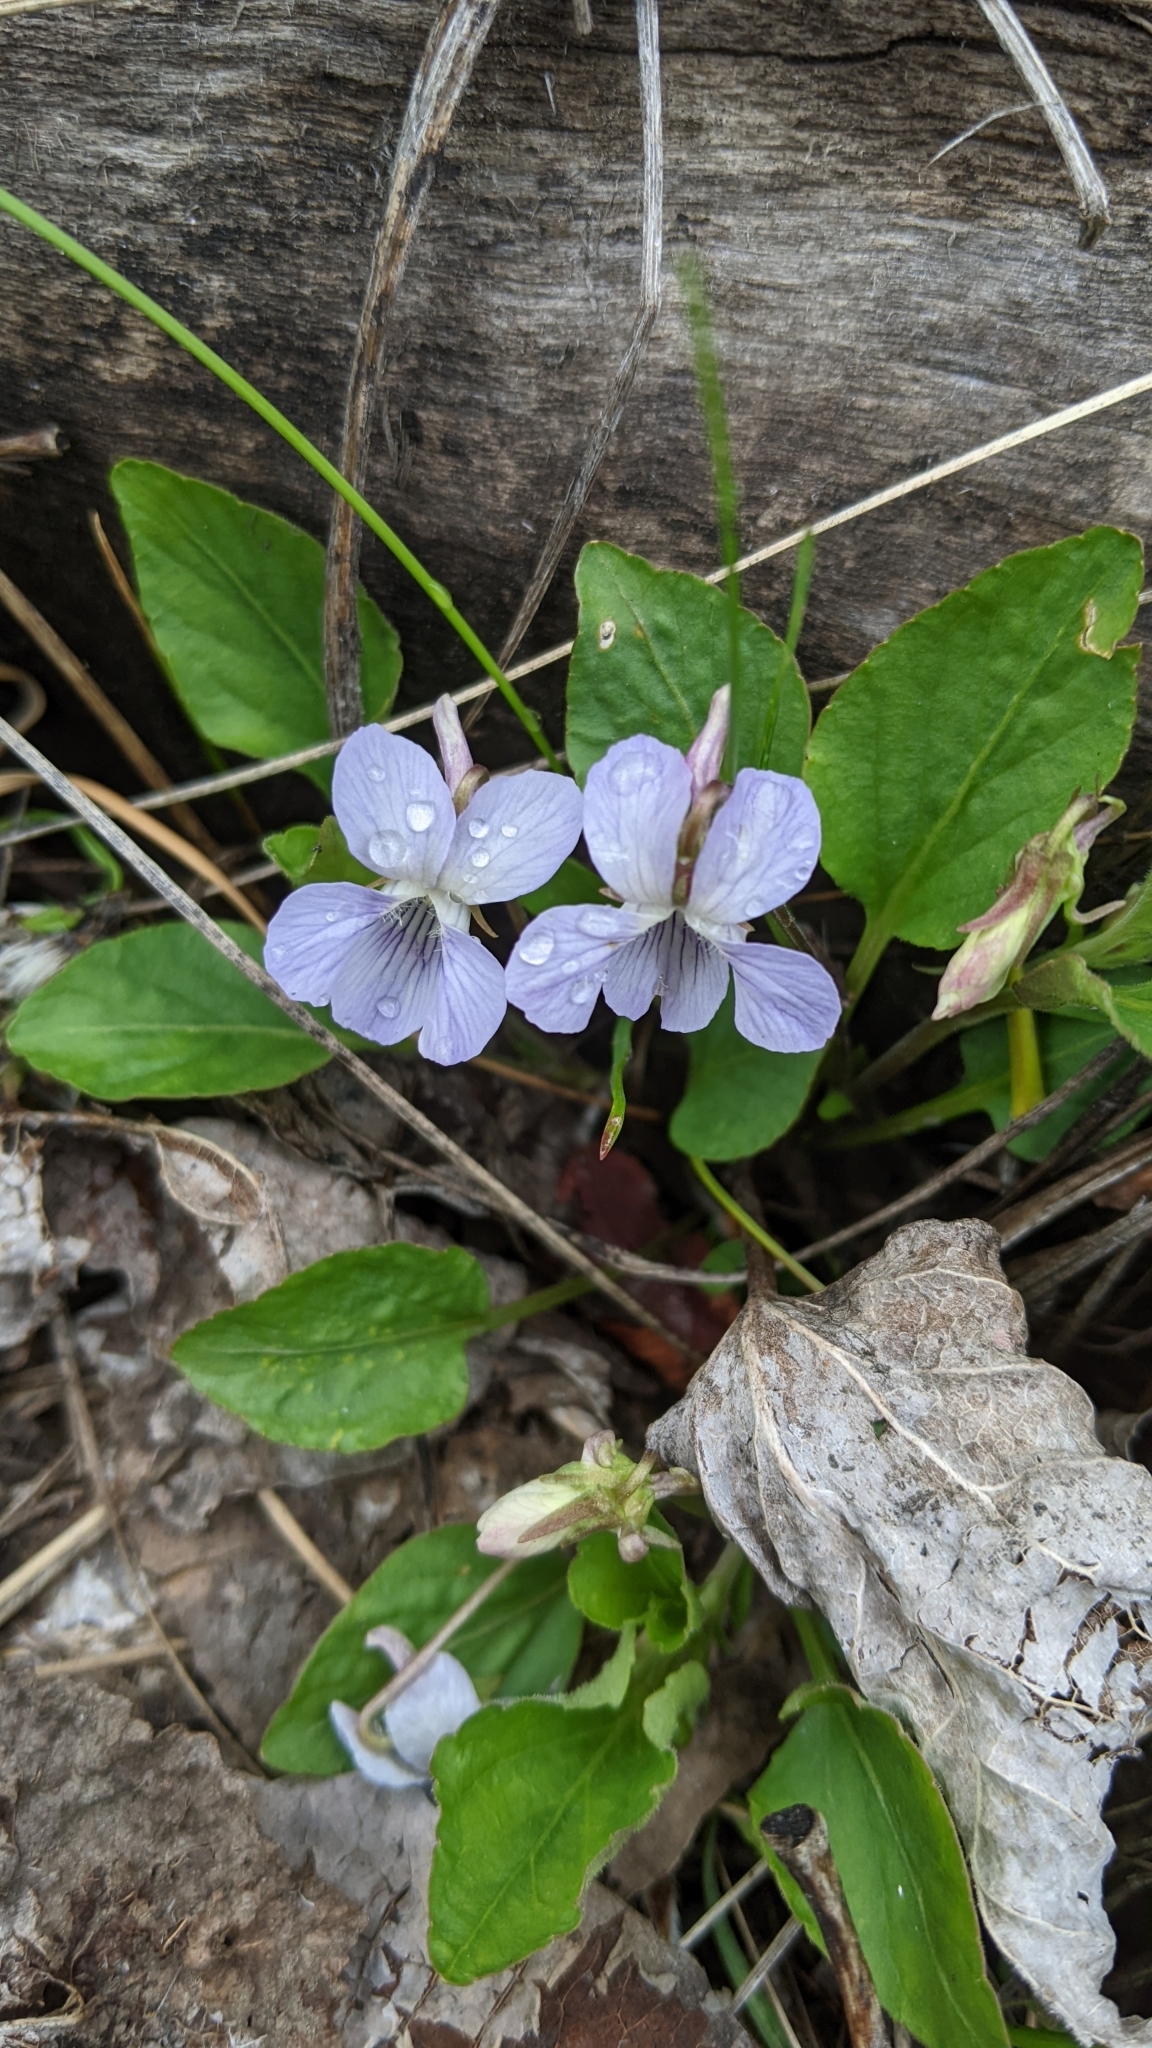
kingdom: Plantae
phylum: Tracheophyta
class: Magnoliopsida
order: Malpighiales
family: Violaceae
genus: Viola
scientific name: Viola adunca
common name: Sand violet
